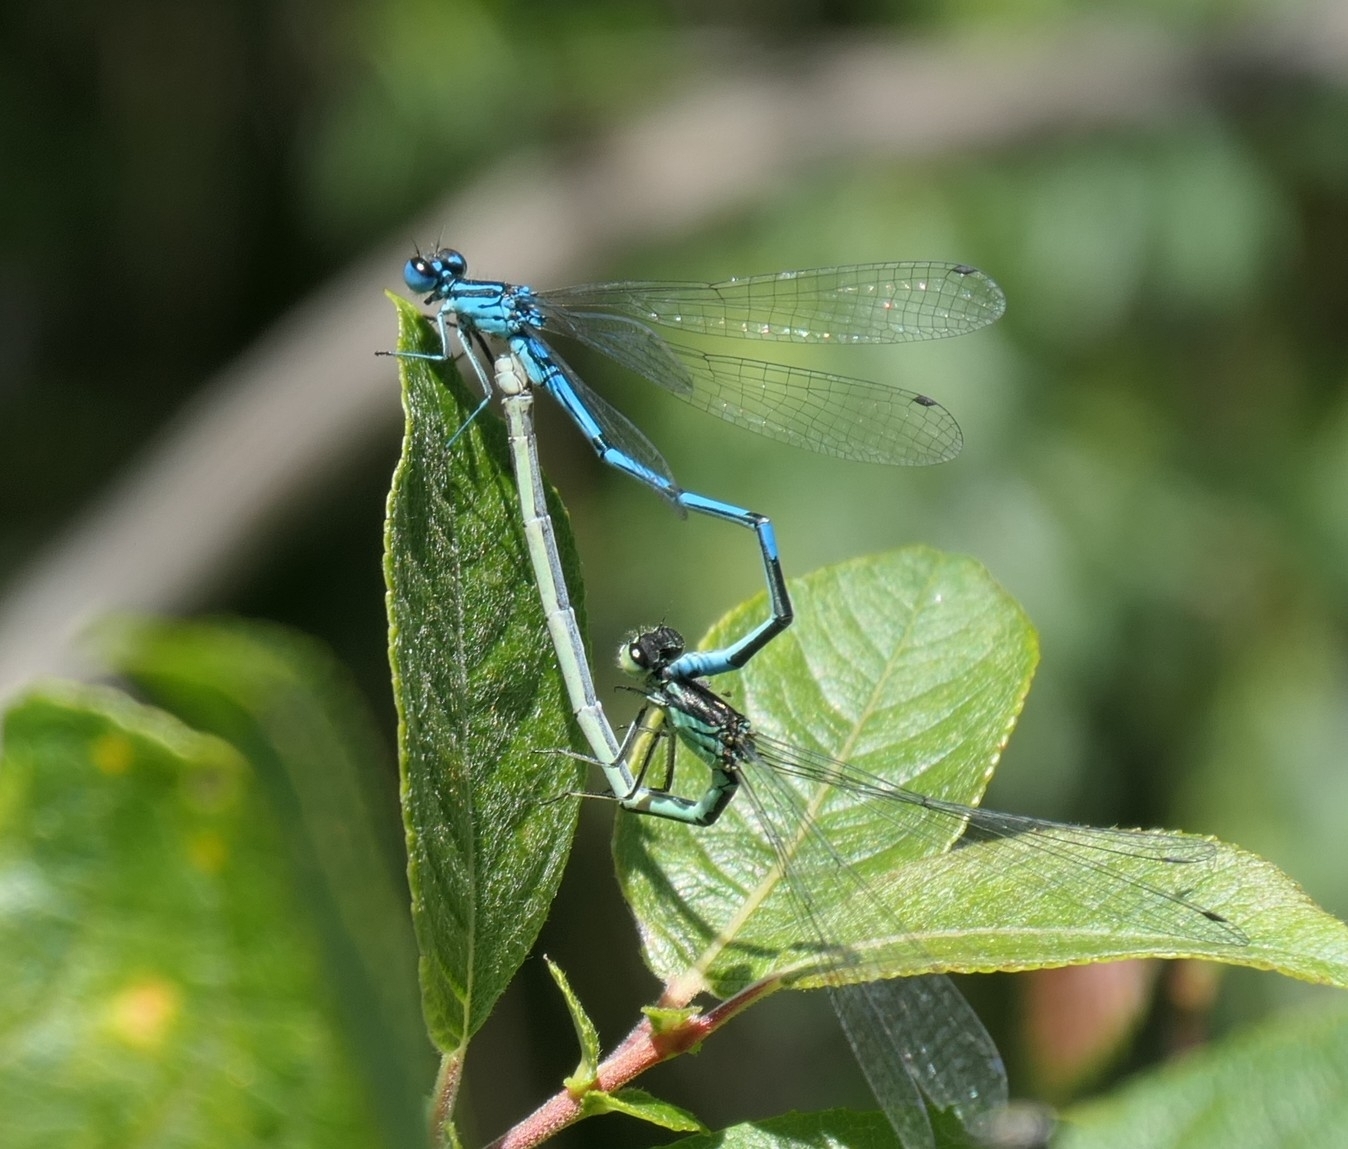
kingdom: Animalia
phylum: Arthropoda
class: Insecta
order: Odonata
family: Coenagrionidae
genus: Coenagrion
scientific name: Coenagrion puella
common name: Azure damselfly
